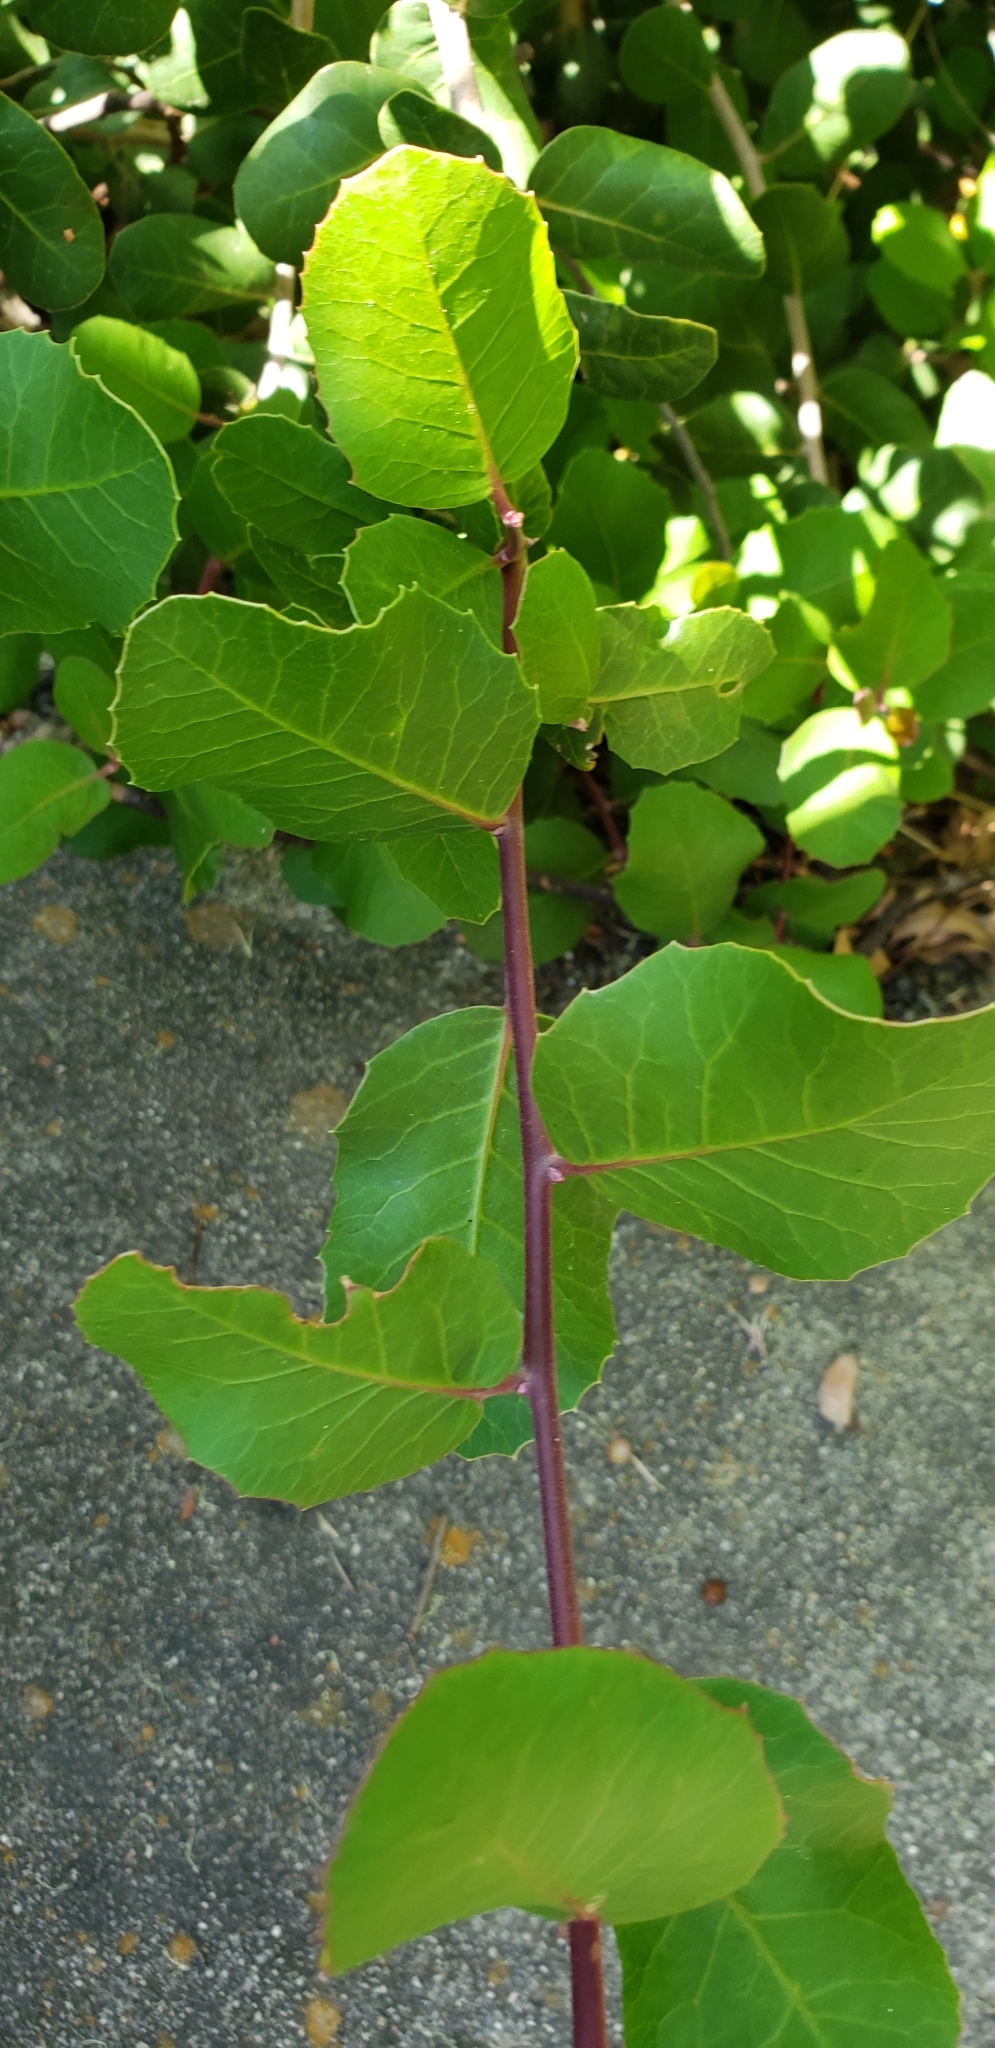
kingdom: Plantae
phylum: Tracheophyta
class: Magnoliopsida
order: Sapindales
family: Anacardiaceae
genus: Rhus
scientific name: Rhus integrifolia
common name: Lemonade sumac
